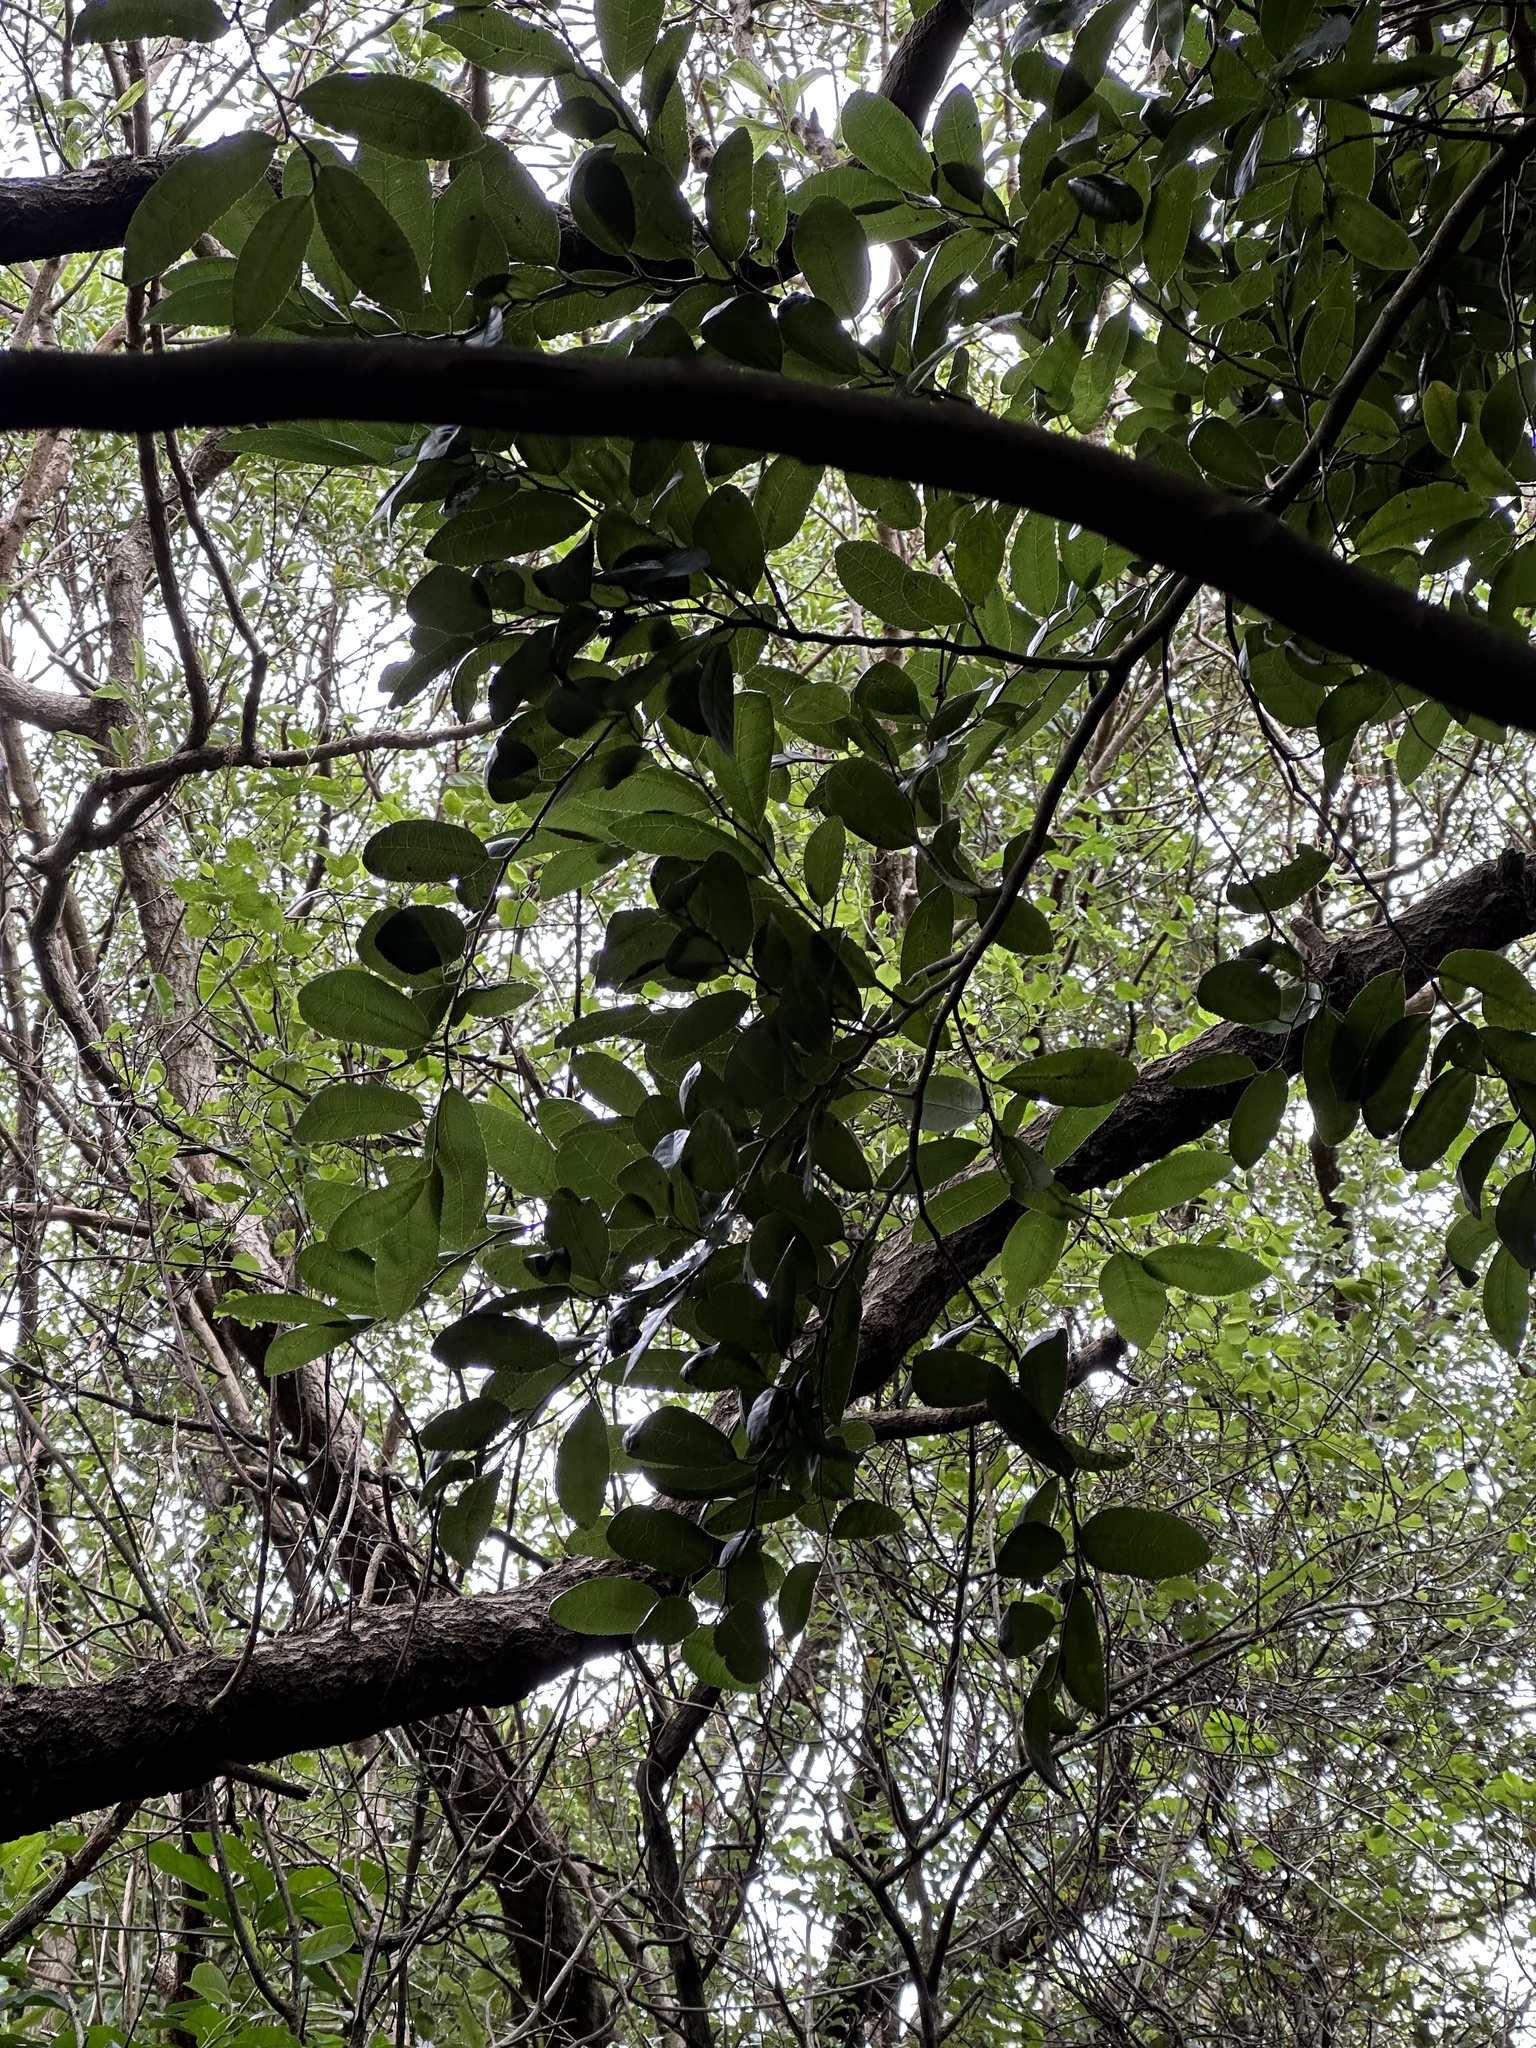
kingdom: Plantae
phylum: Tracheophyta
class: Magnoliopsida
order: Rosales
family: Moraceae
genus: Paratrophis
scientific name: Paratrophis banksii
